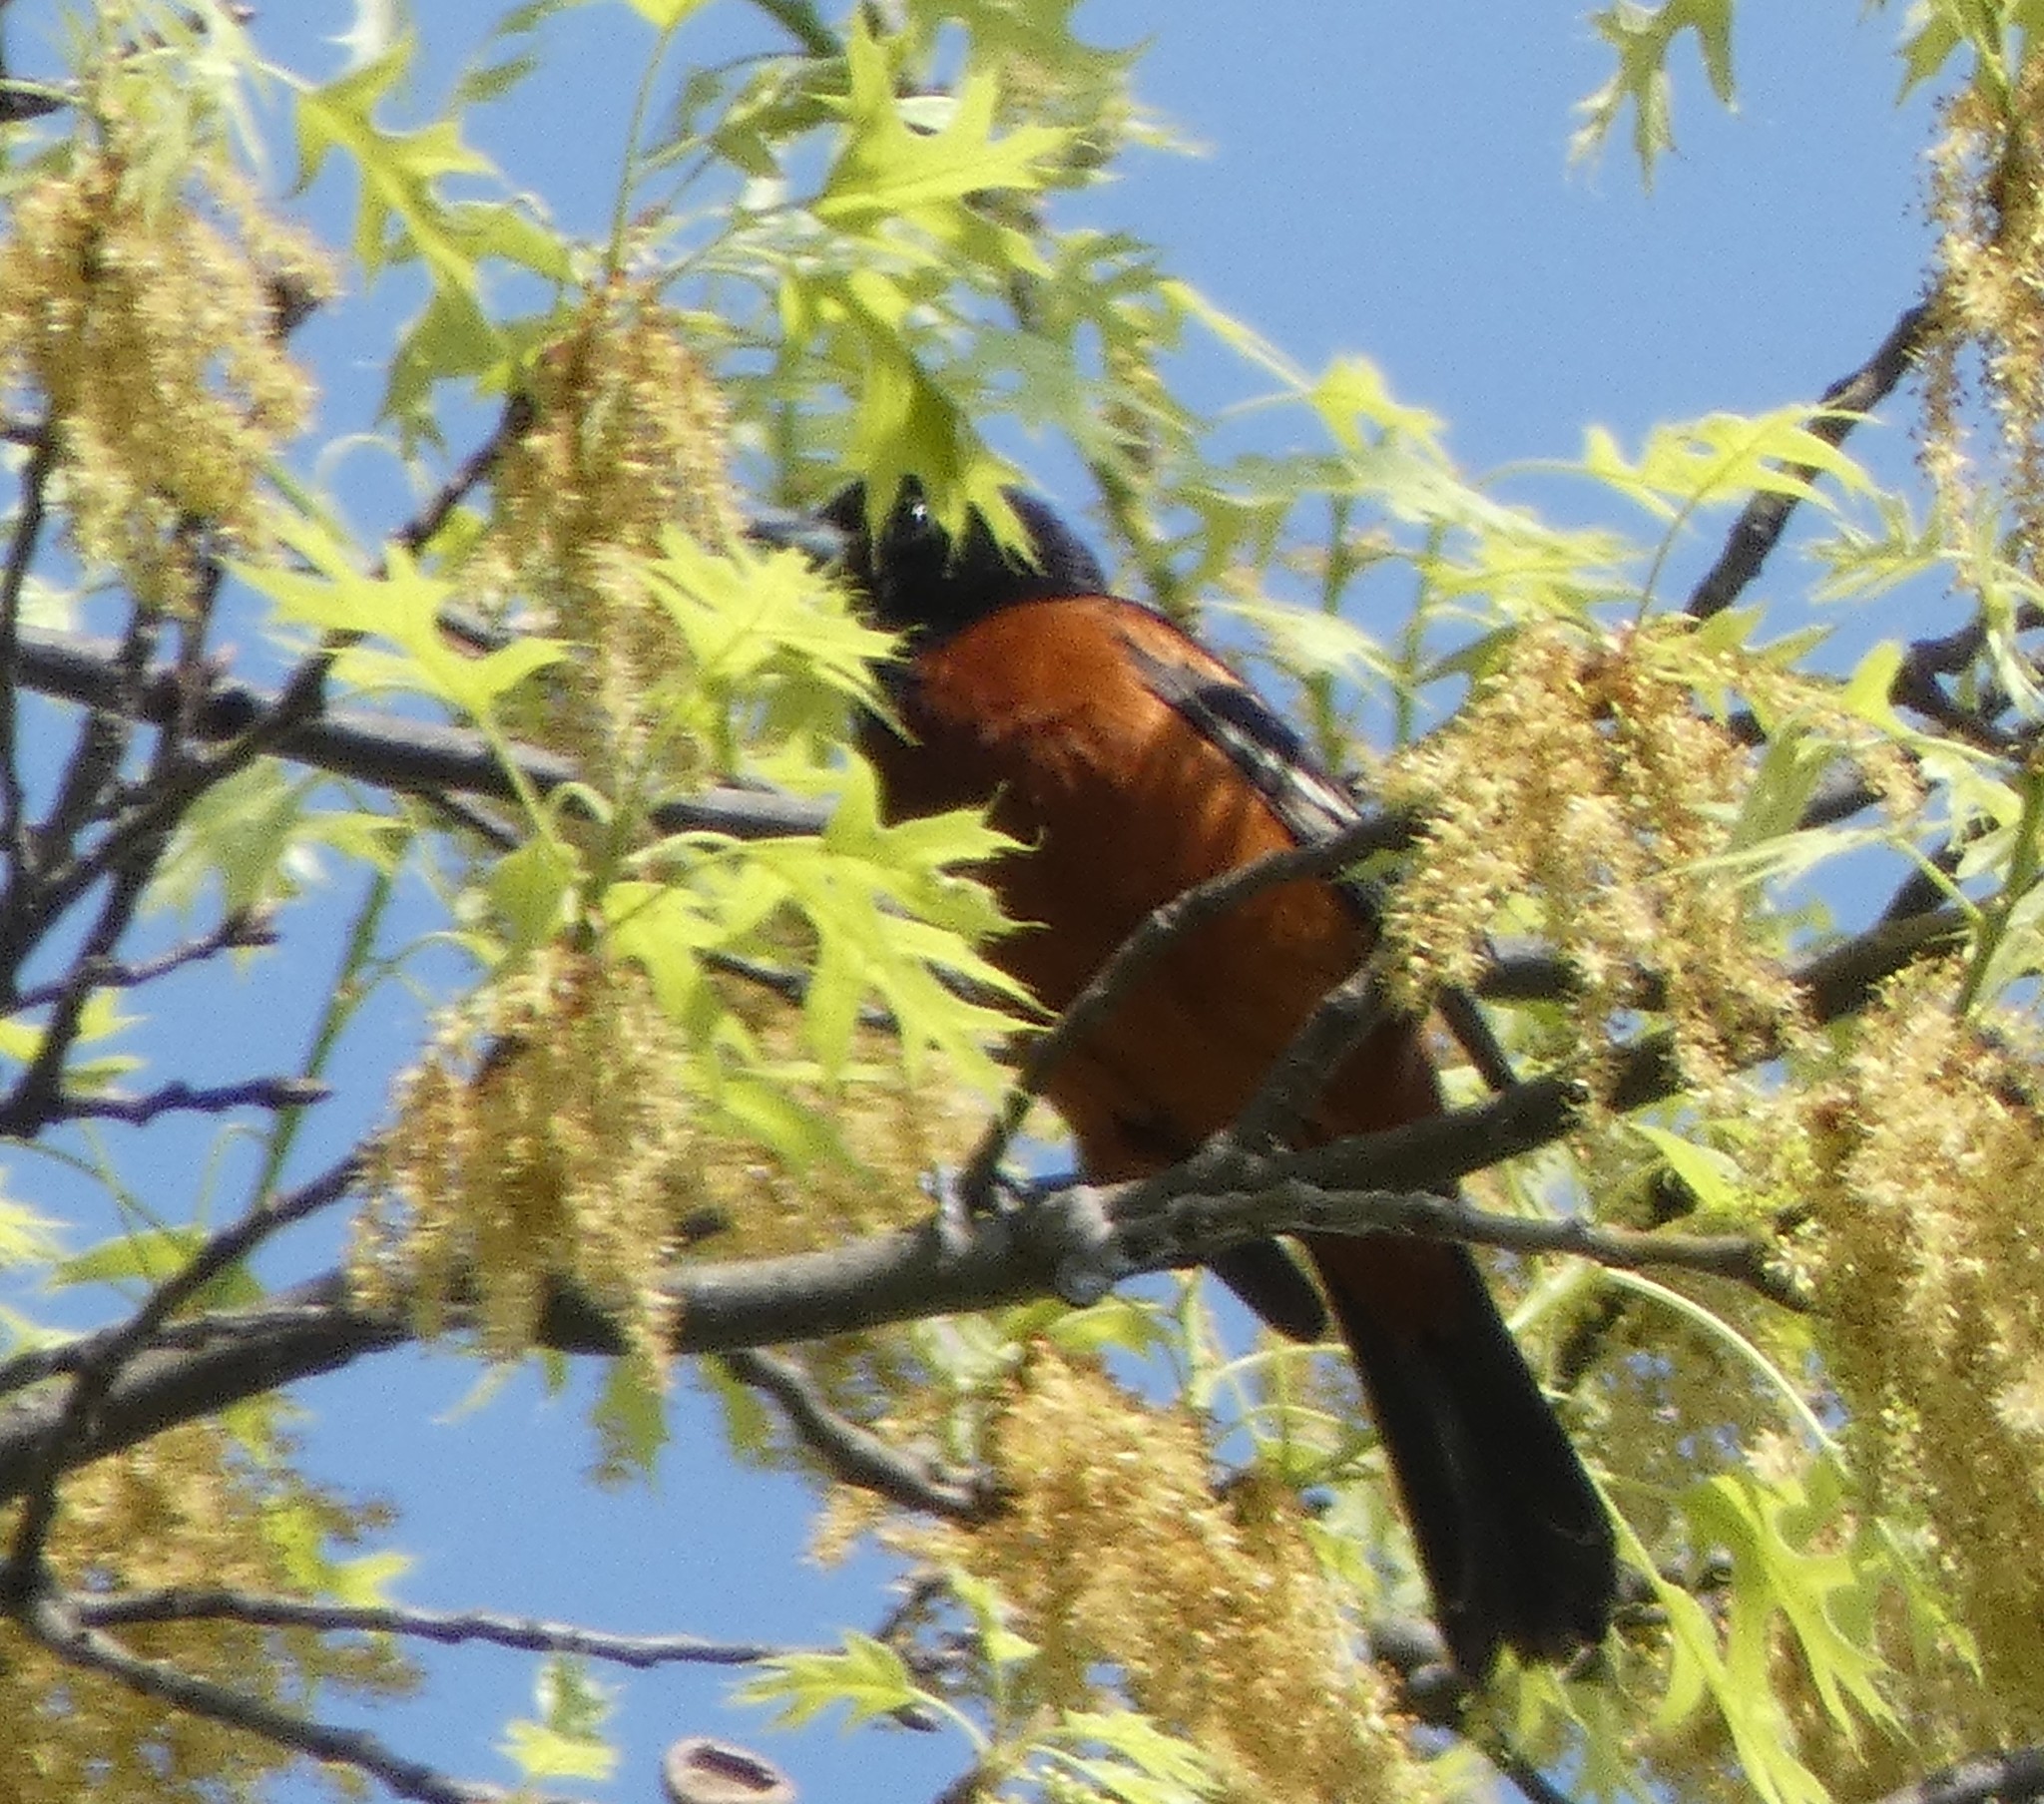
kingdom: Animalia
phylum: Chordata
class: Aves
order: Passeriformes
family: Icteridae
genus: Icterus
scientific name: Icterus spurius
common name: Orchard oriole
